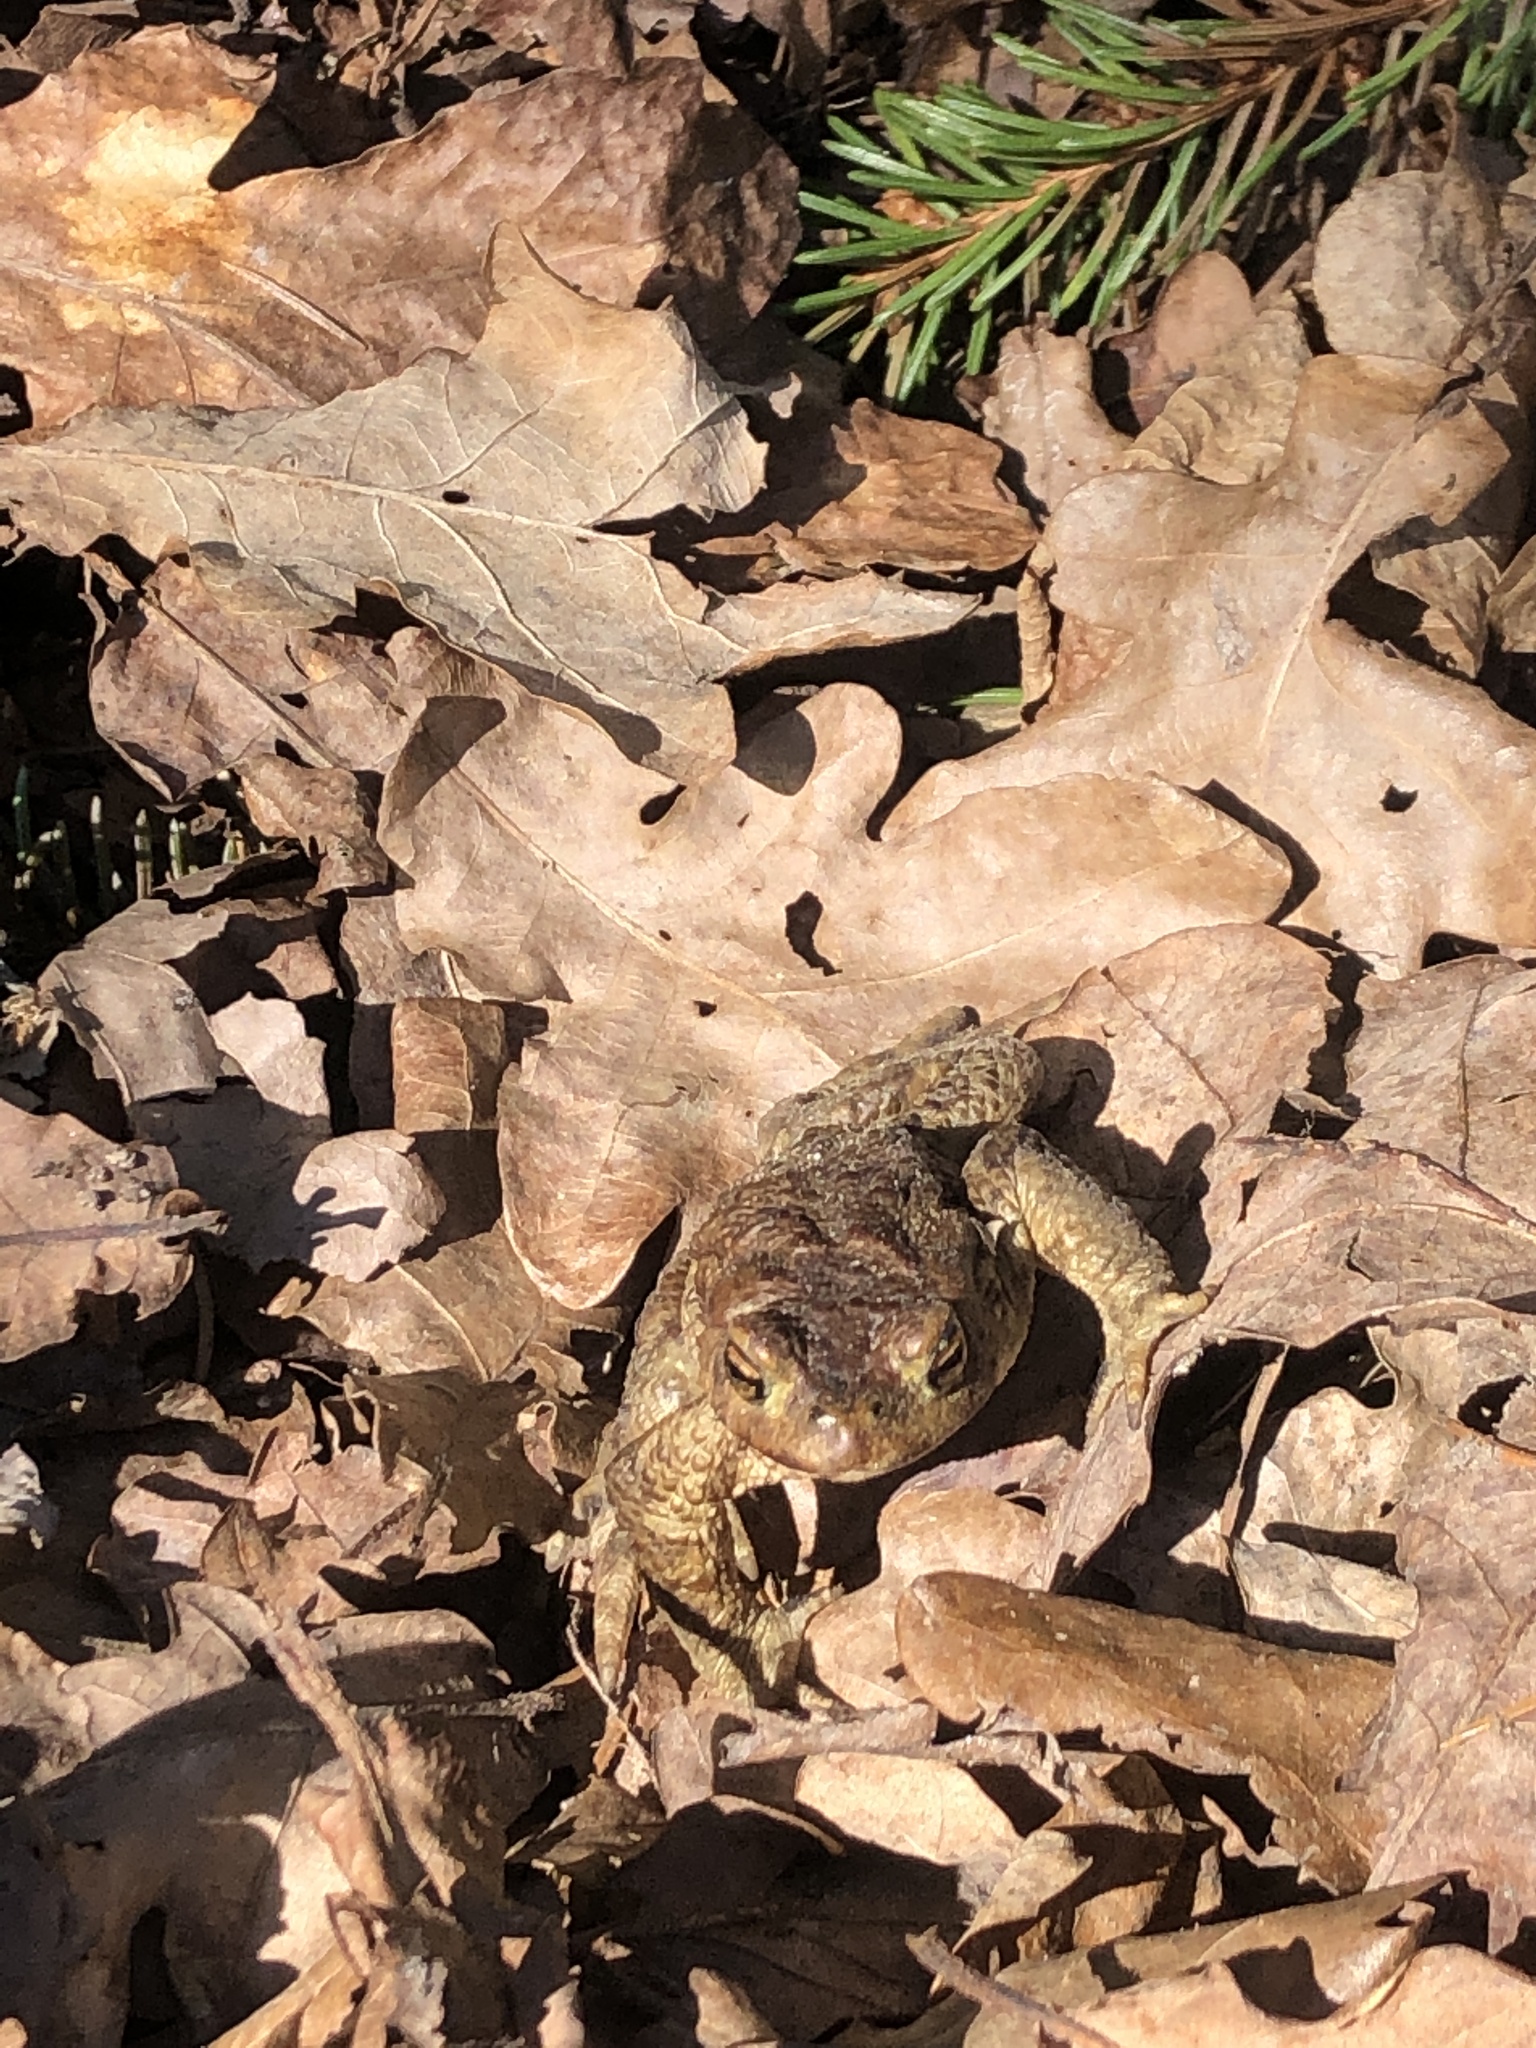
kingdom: Animalia
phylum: Chordata
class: Amphibia
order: Anura
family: Bufonidae
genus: Bufo
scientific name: Bufo bufo
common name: Common toad
